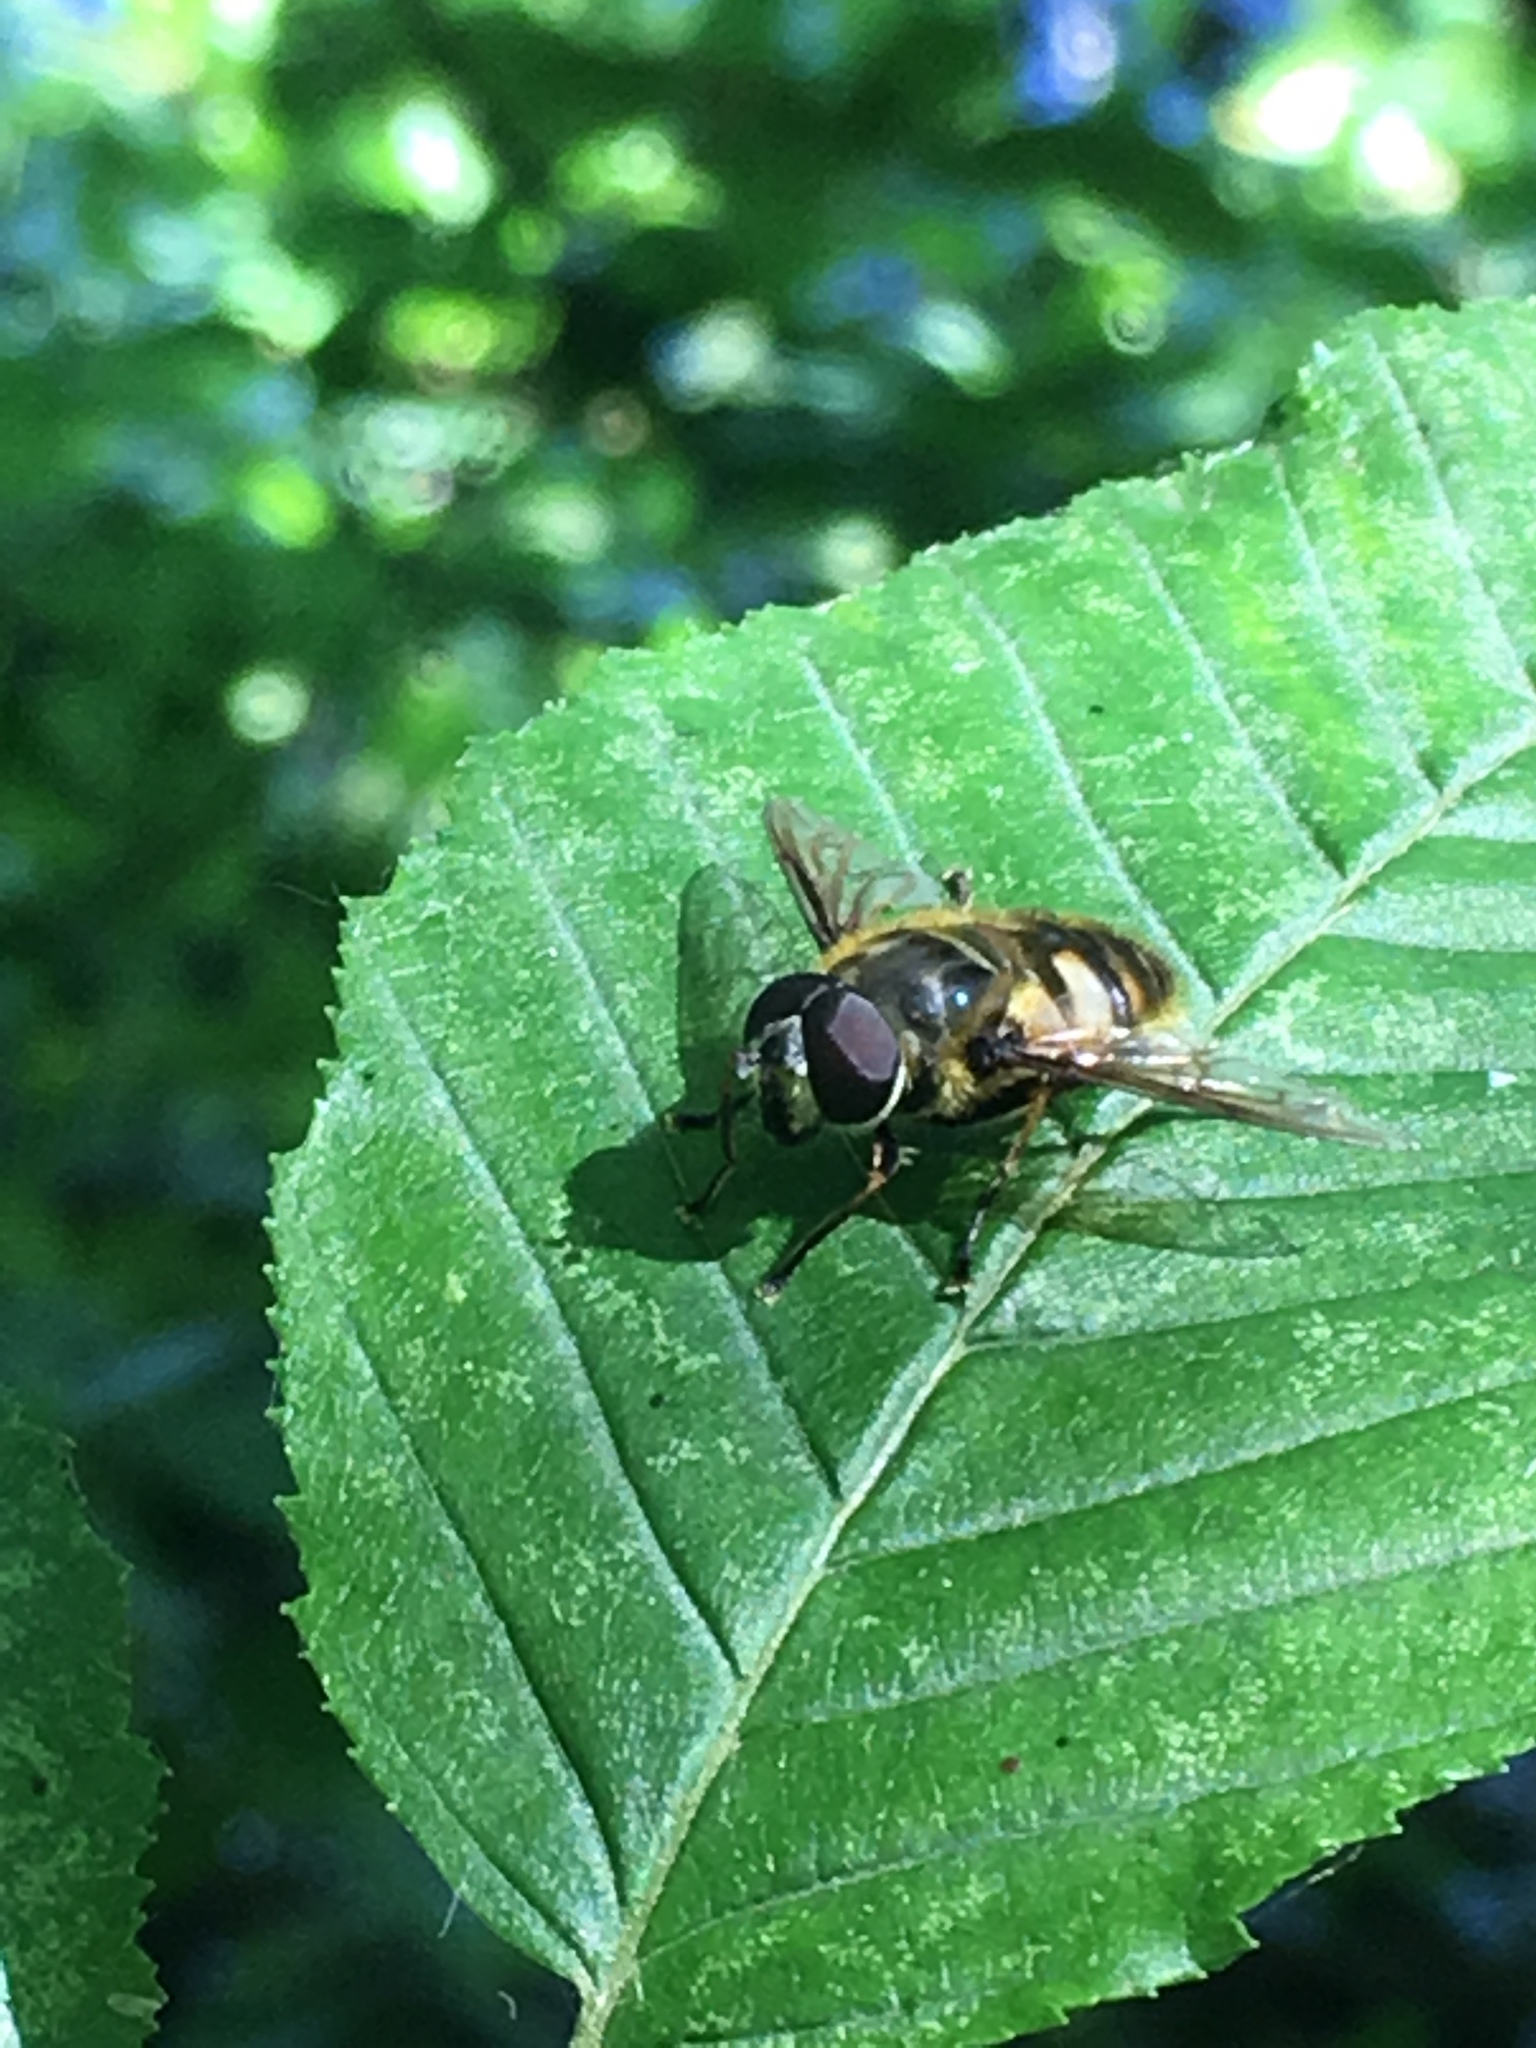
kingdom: Animalia
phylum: Arthropoda
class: Insecta
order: Diptera
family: Syrphidae
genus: Myathropa
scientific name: Myathropa florea
